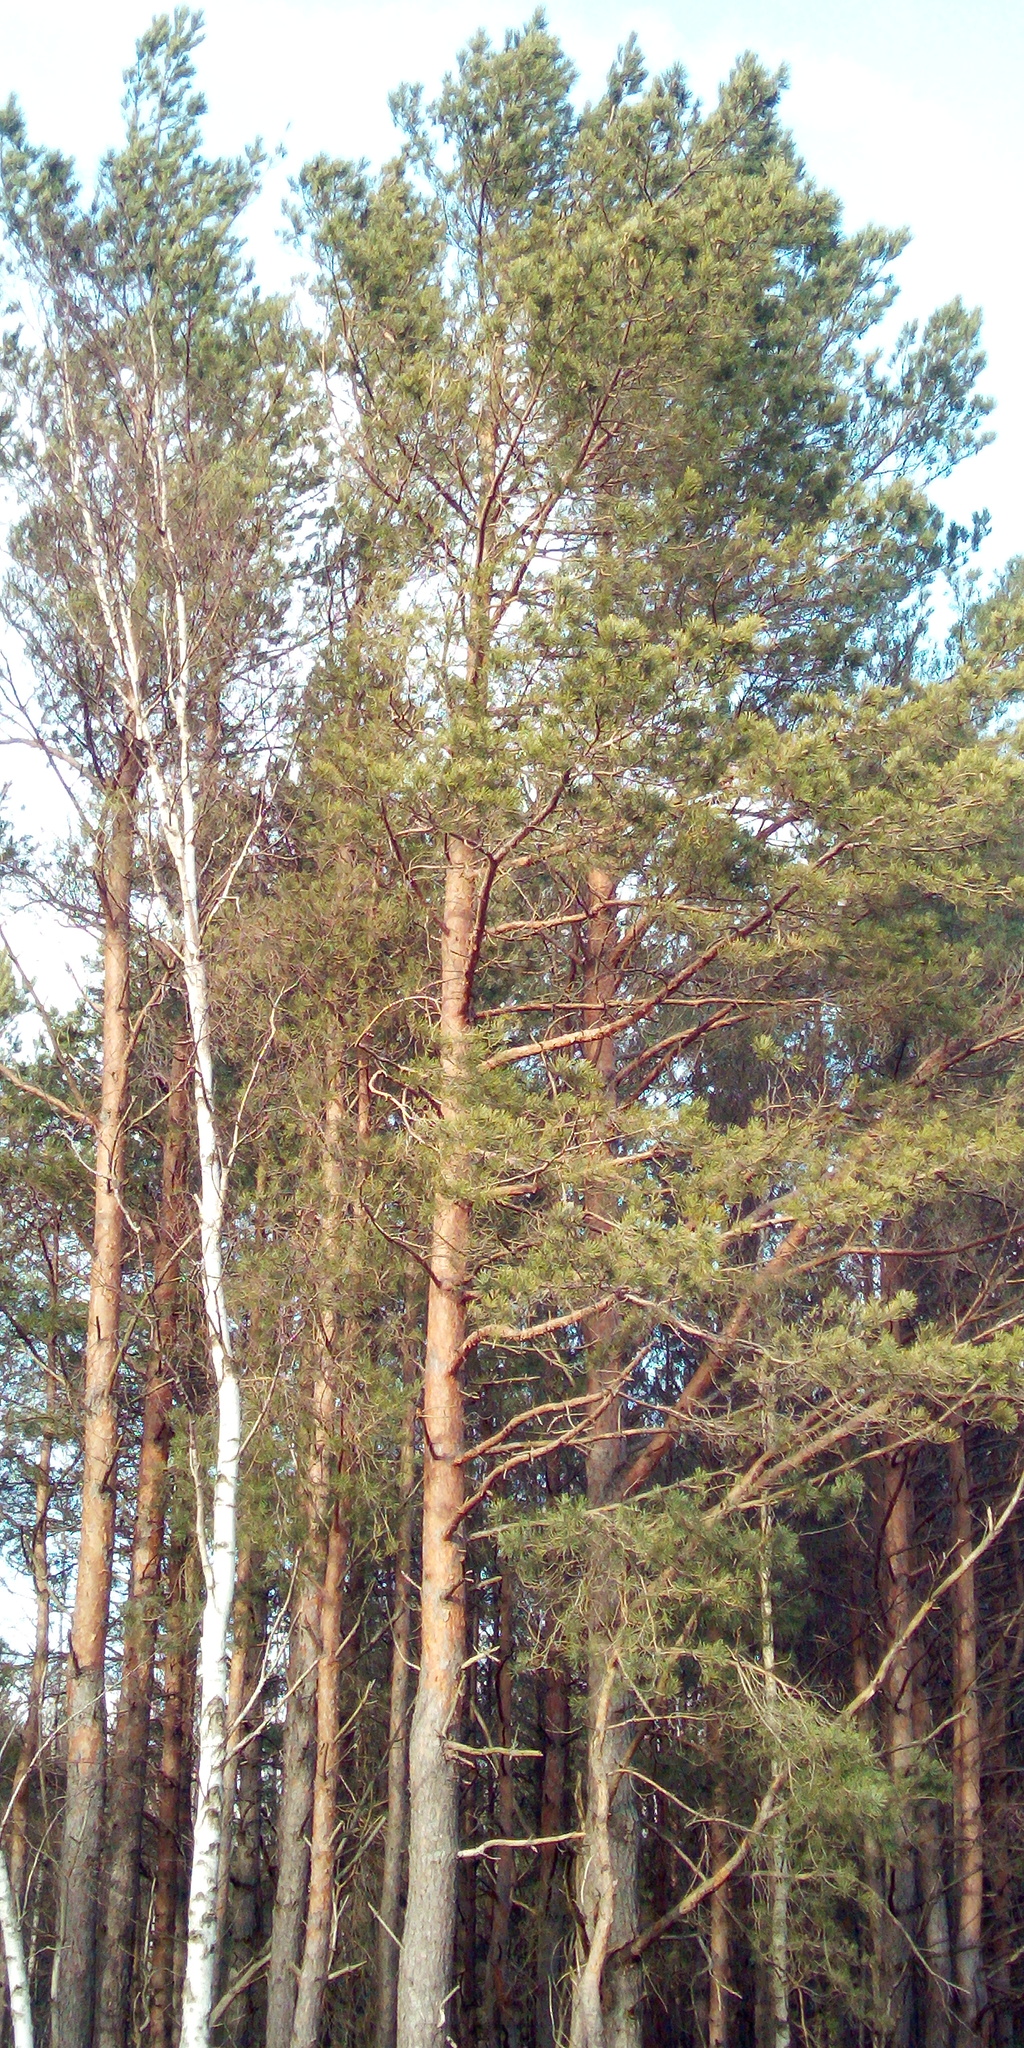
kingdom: Plantae
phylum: Tracheophyta
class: Pinopsida
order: Pinales
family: Pinaceae
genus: Pinus
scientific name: Pinus sylvestris
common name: Scots pine
